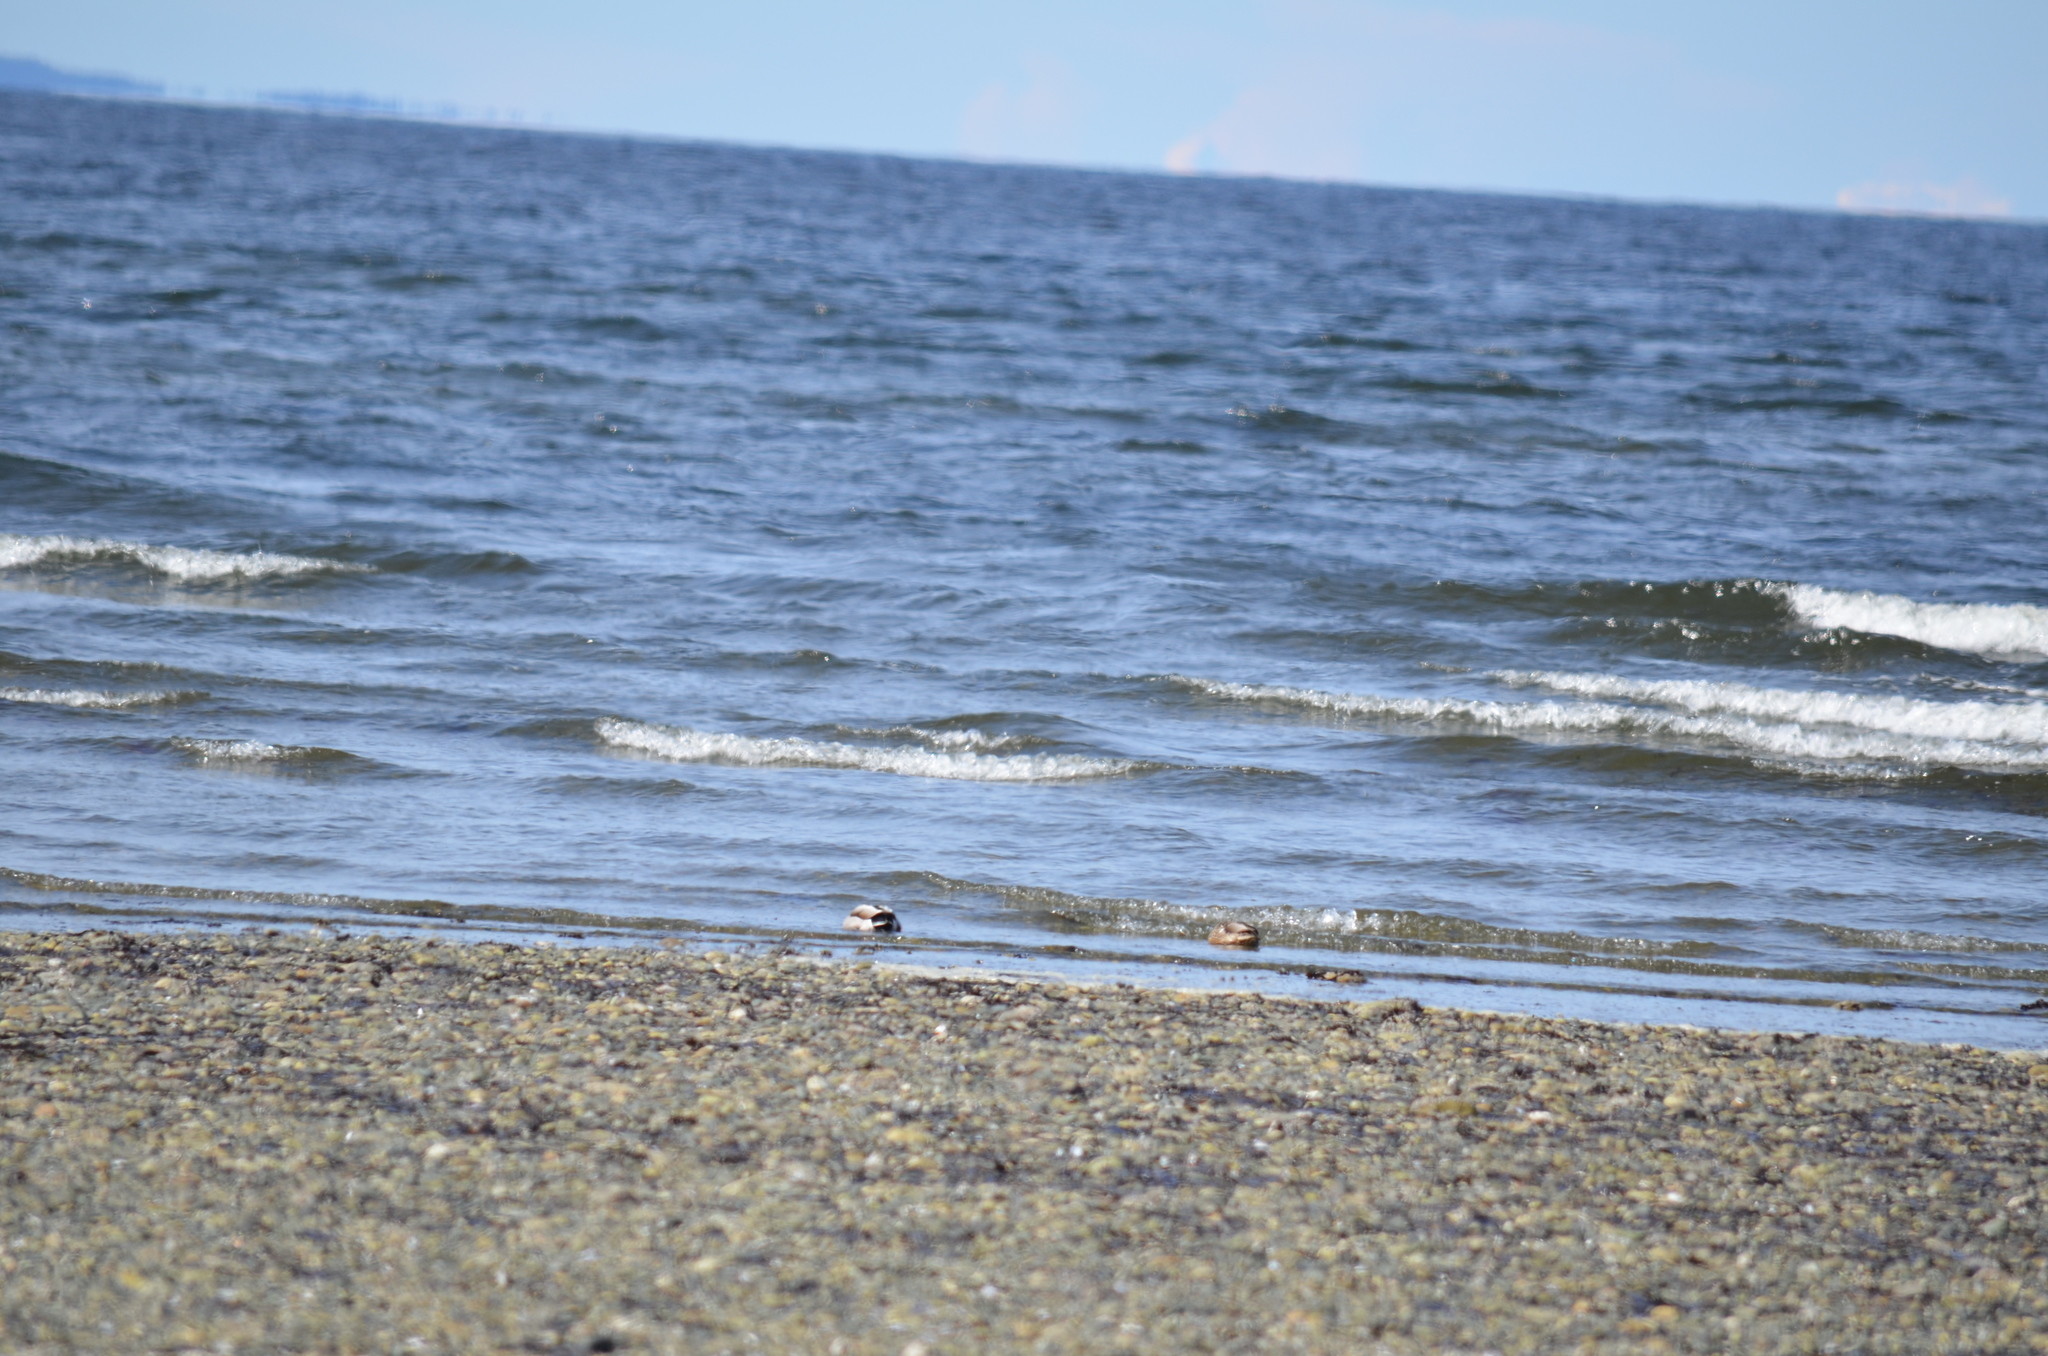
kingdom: Animalia
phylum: Chordata
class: Aves
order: Anseriformes
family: Anatidae
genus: Anas
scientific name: Anas platyrhynchos
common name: Mallard
